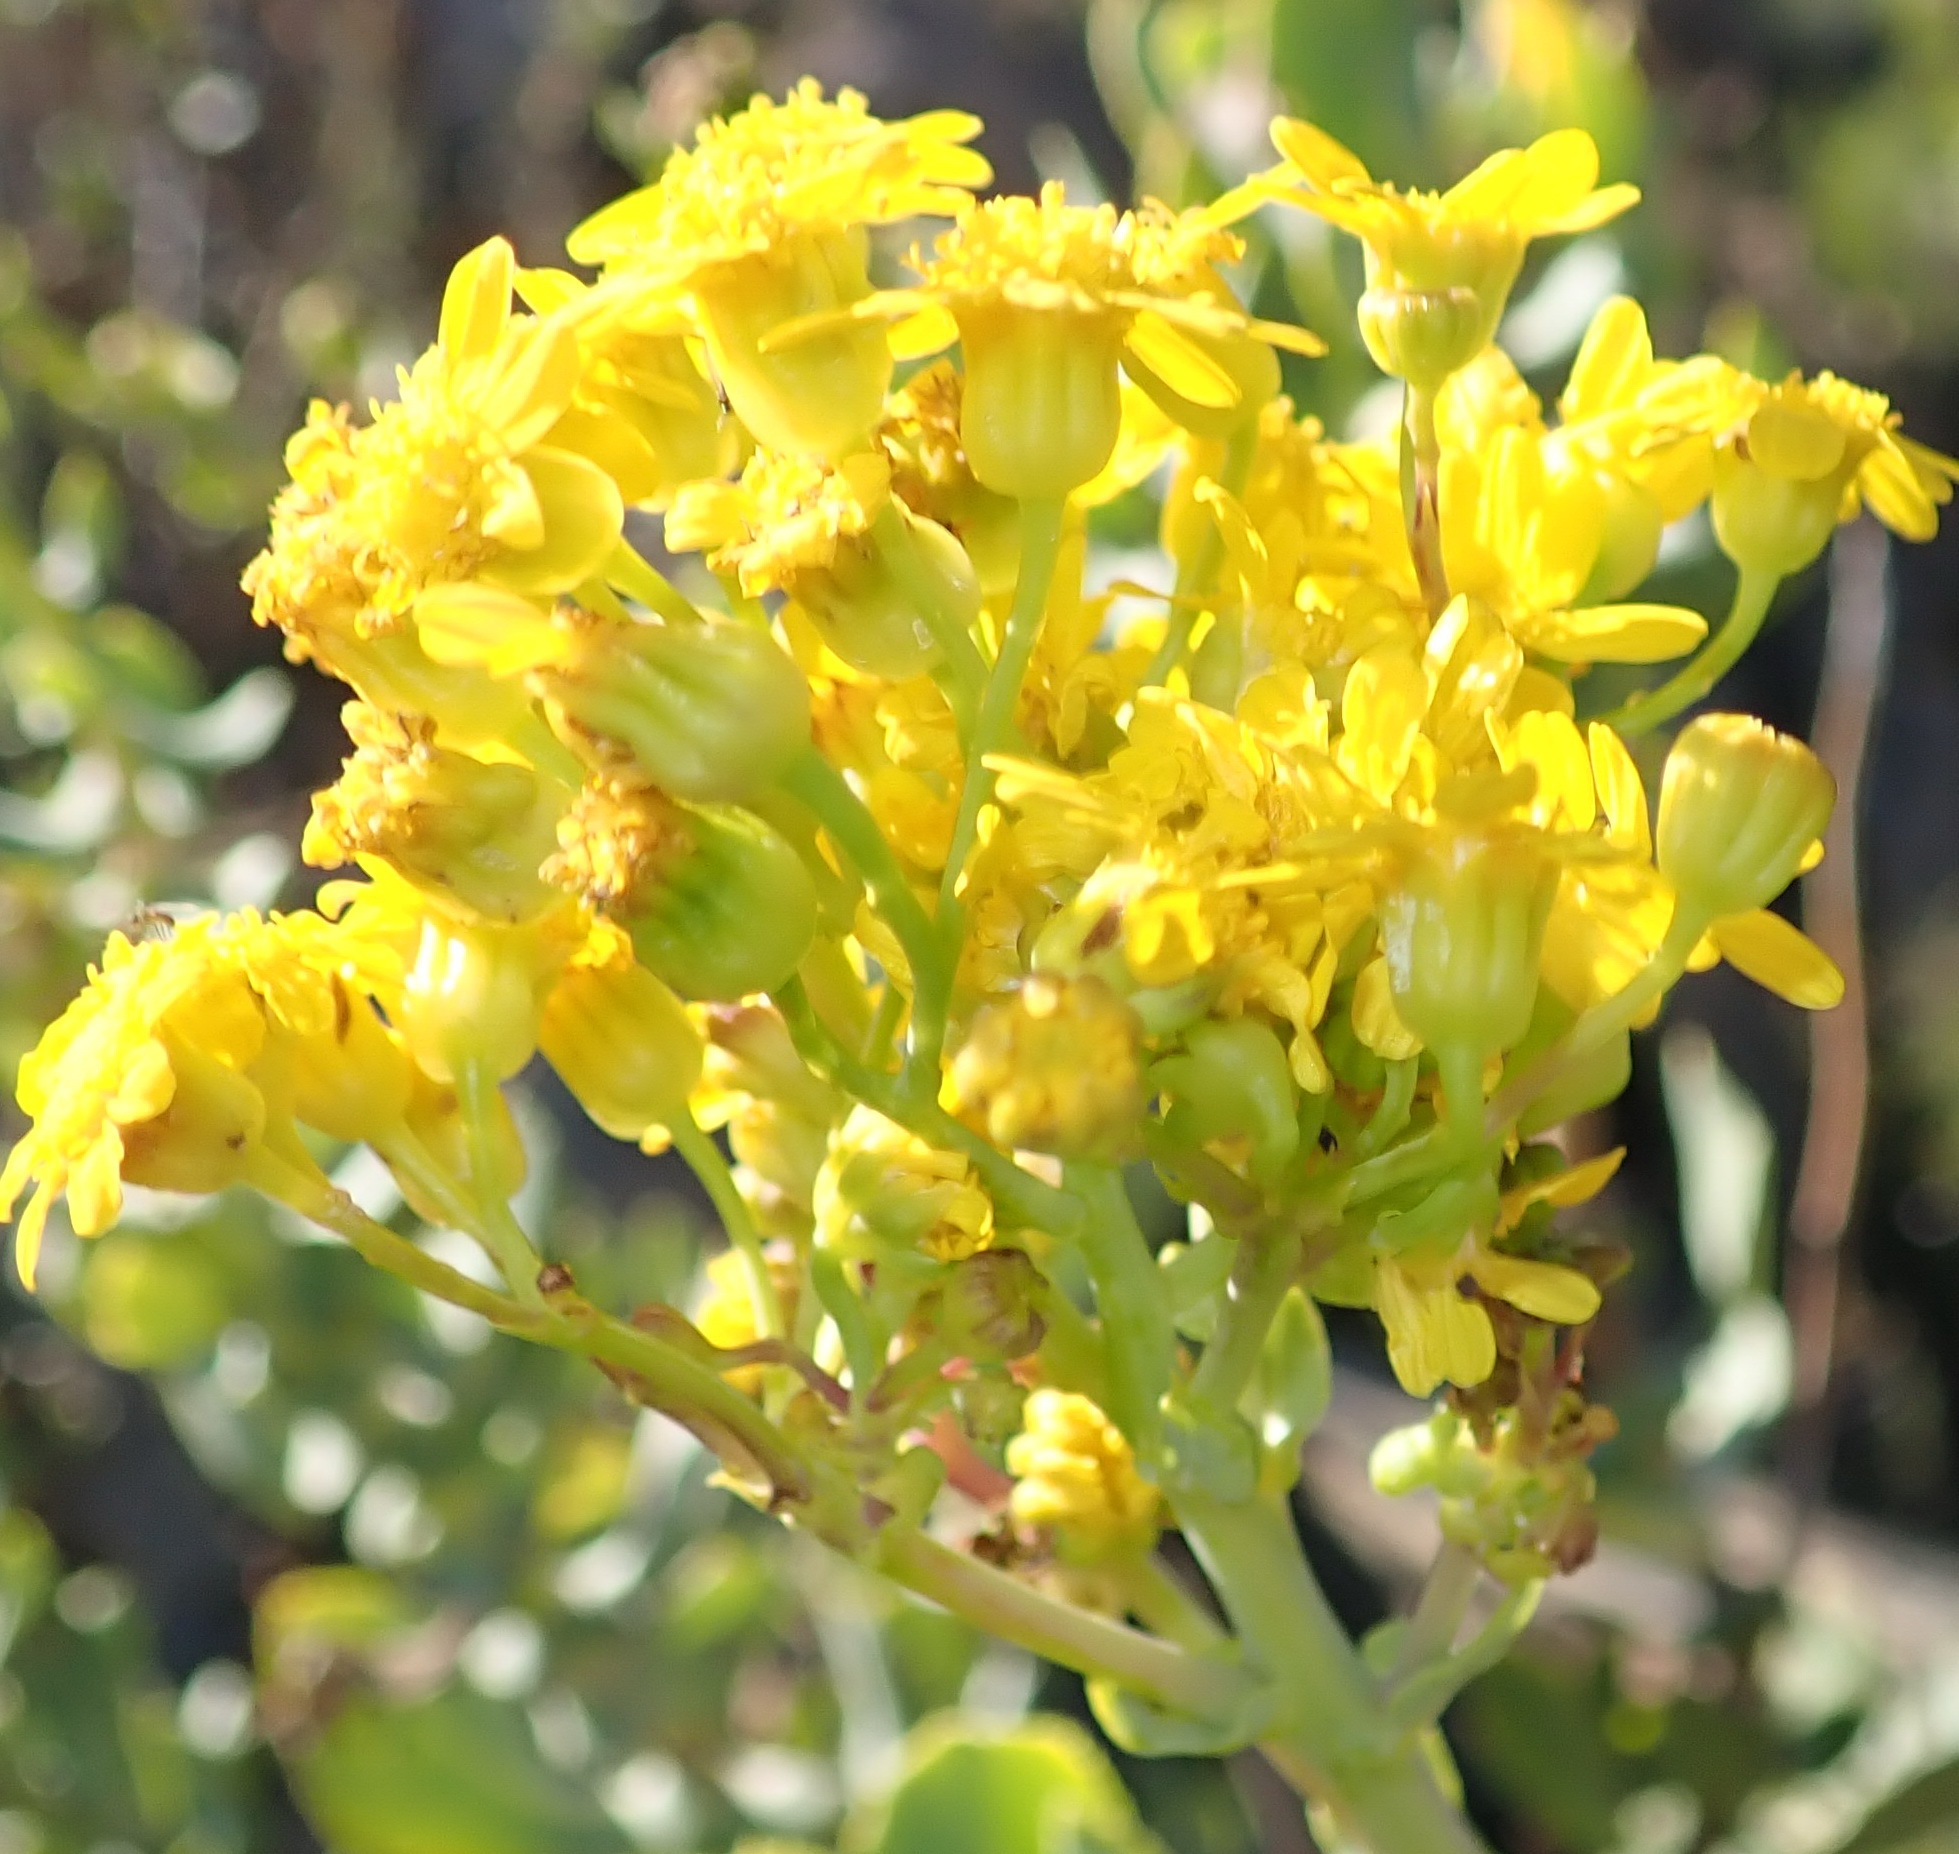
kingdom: Plantae
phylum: Tracheophyta
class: Magnoliopsida
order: Asterales
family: Asteraceae
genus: Othonna
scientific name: Othonna parviflora
